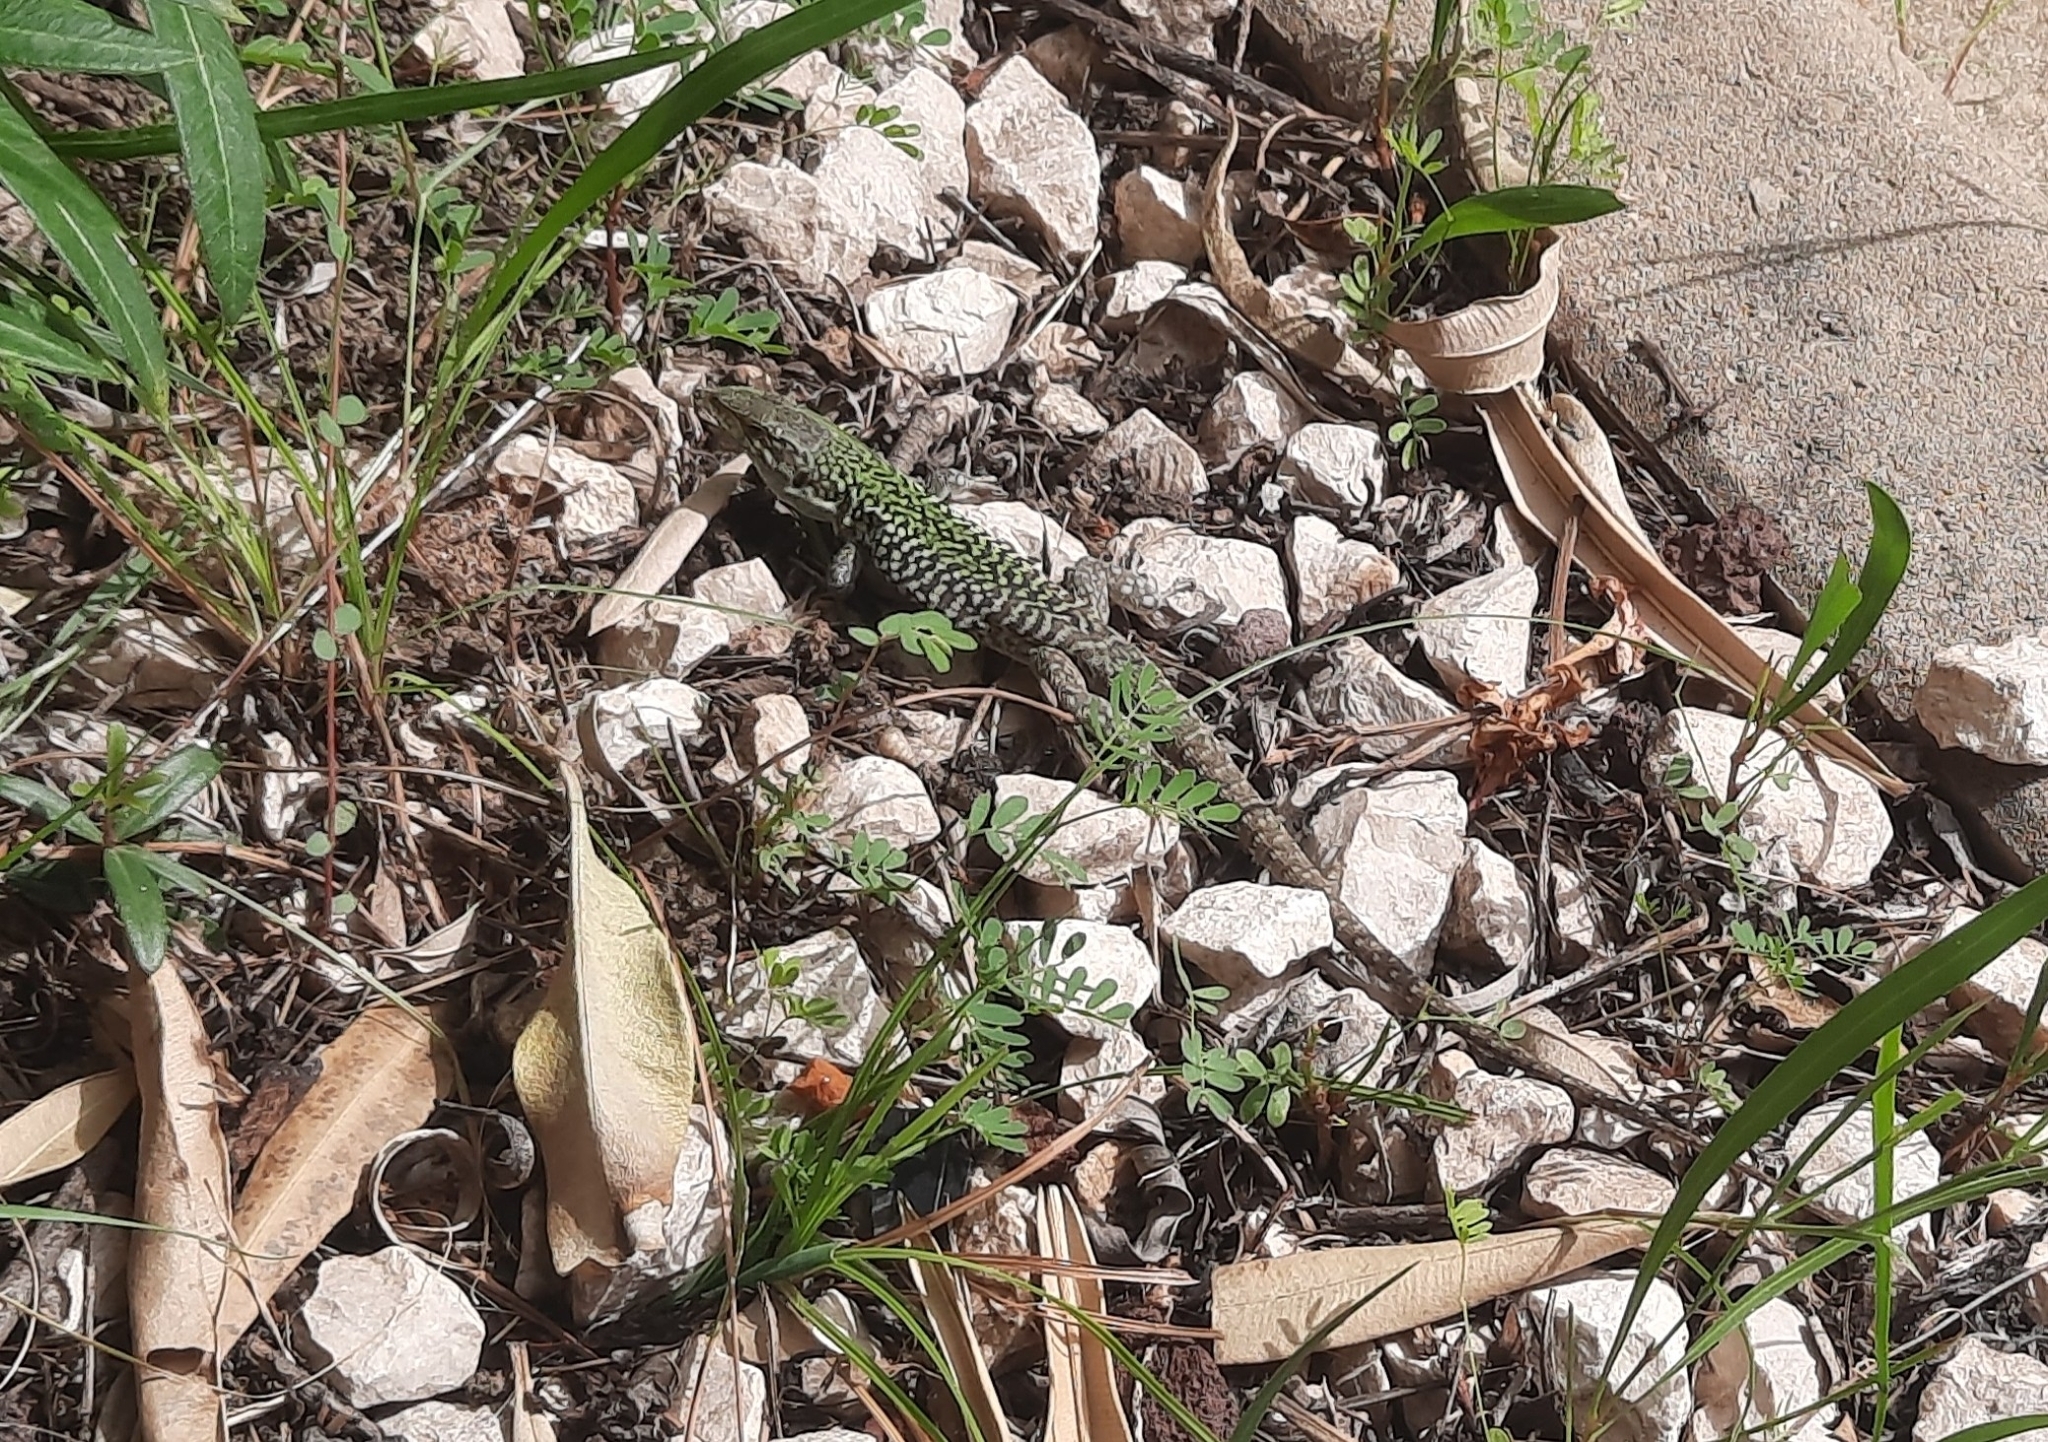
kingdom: Animalia
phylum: Chordata
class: Squamata
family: Lacertidae
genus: Podarcis
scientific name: Podarcis siculus
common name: Italian wall lizard
